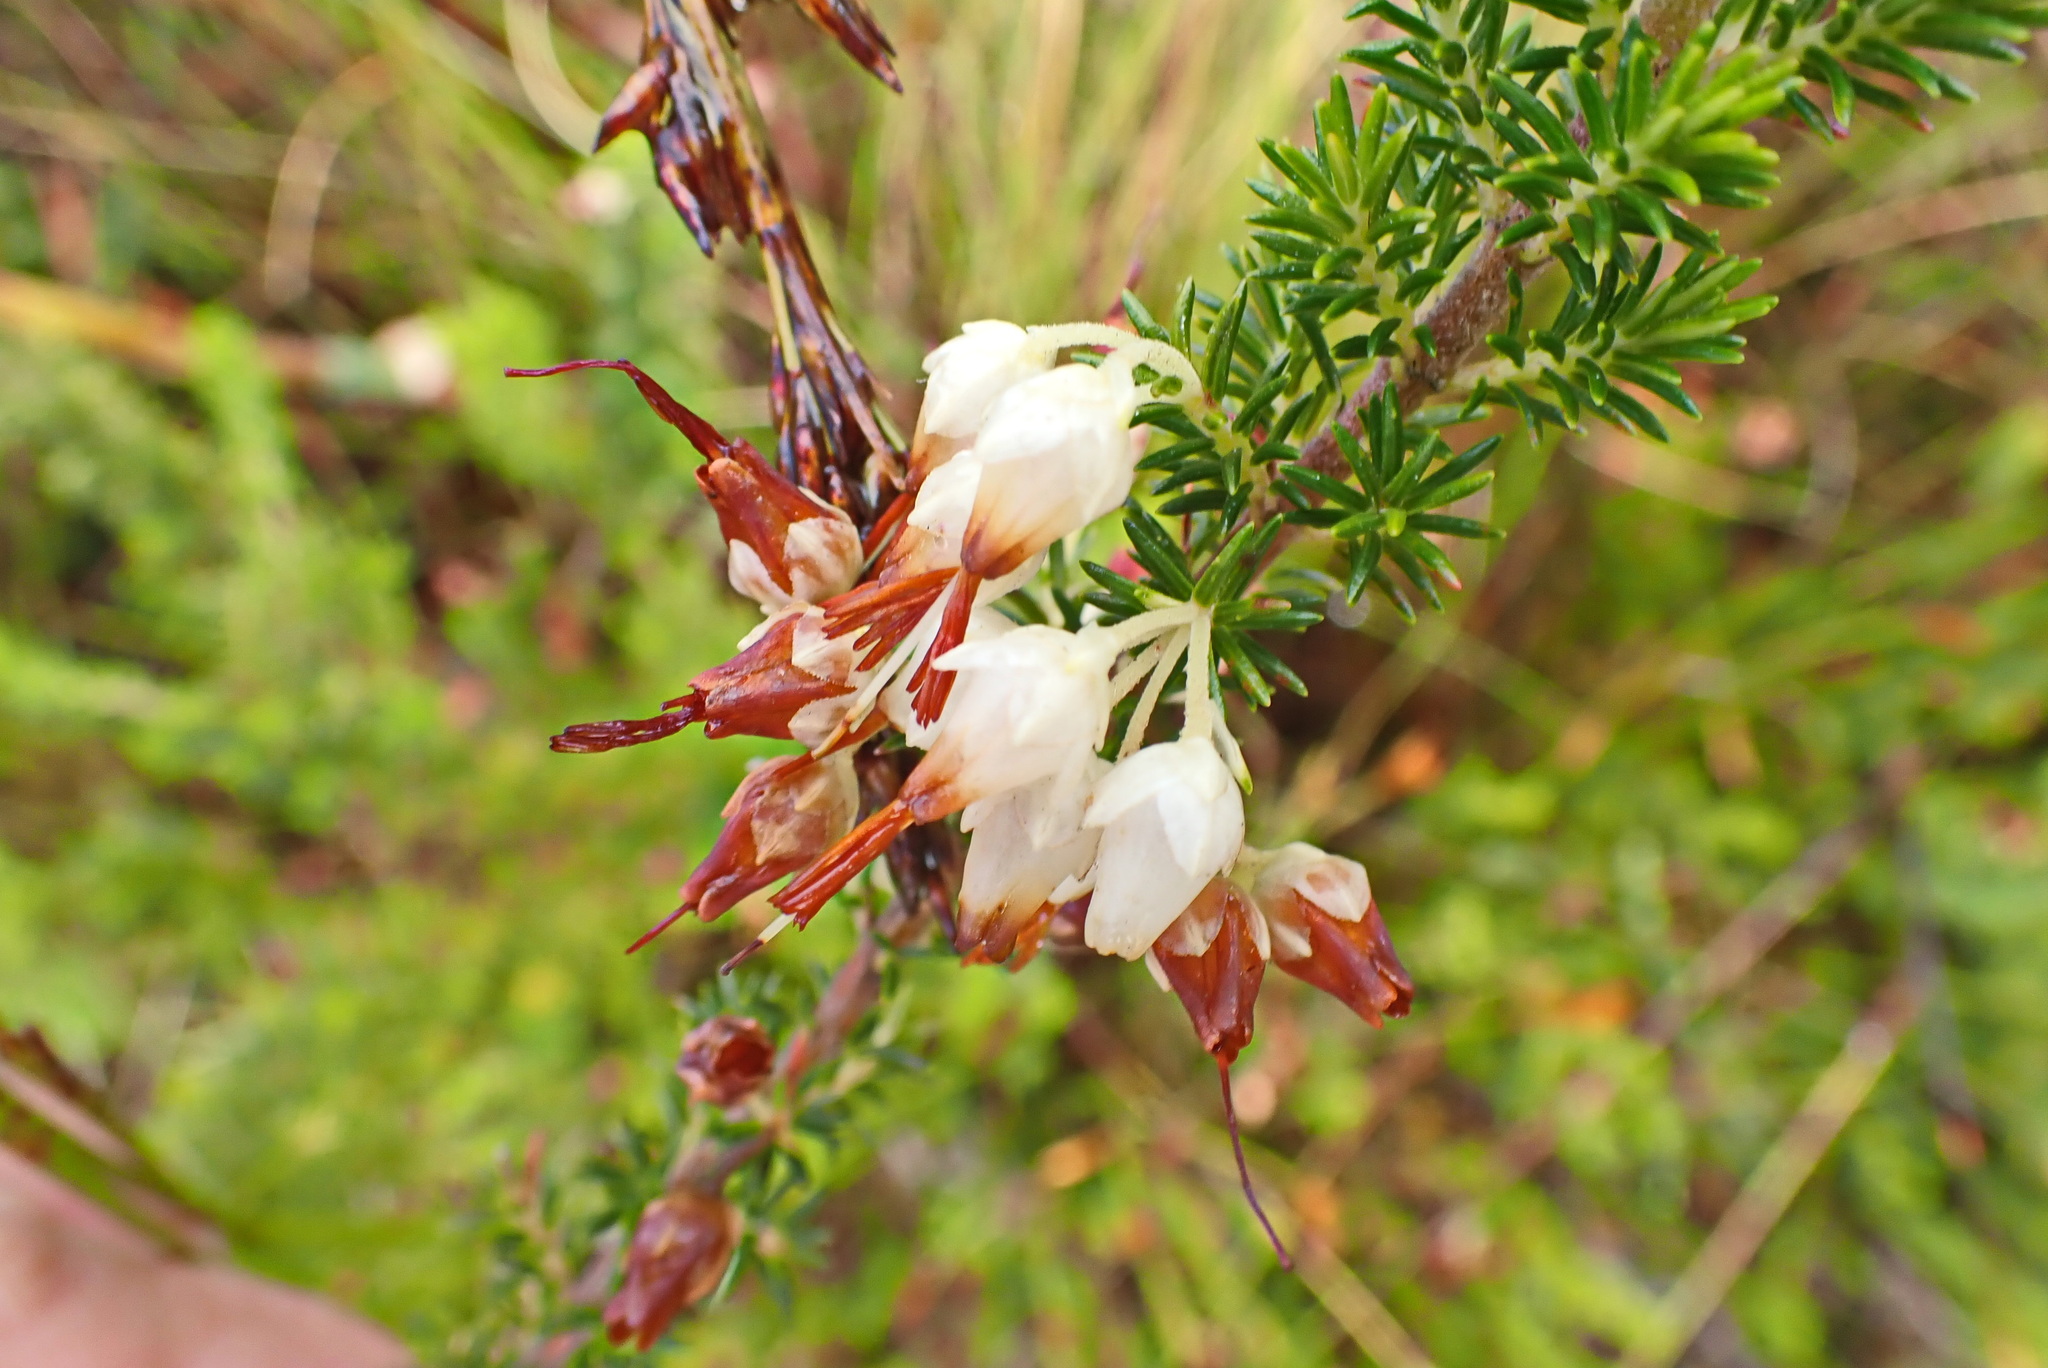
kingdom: Plantae
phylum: Tracheophyta
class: Magnoliopsida
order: Ericales
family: Ericaceae
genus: Erica
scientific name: Erica intermedia
